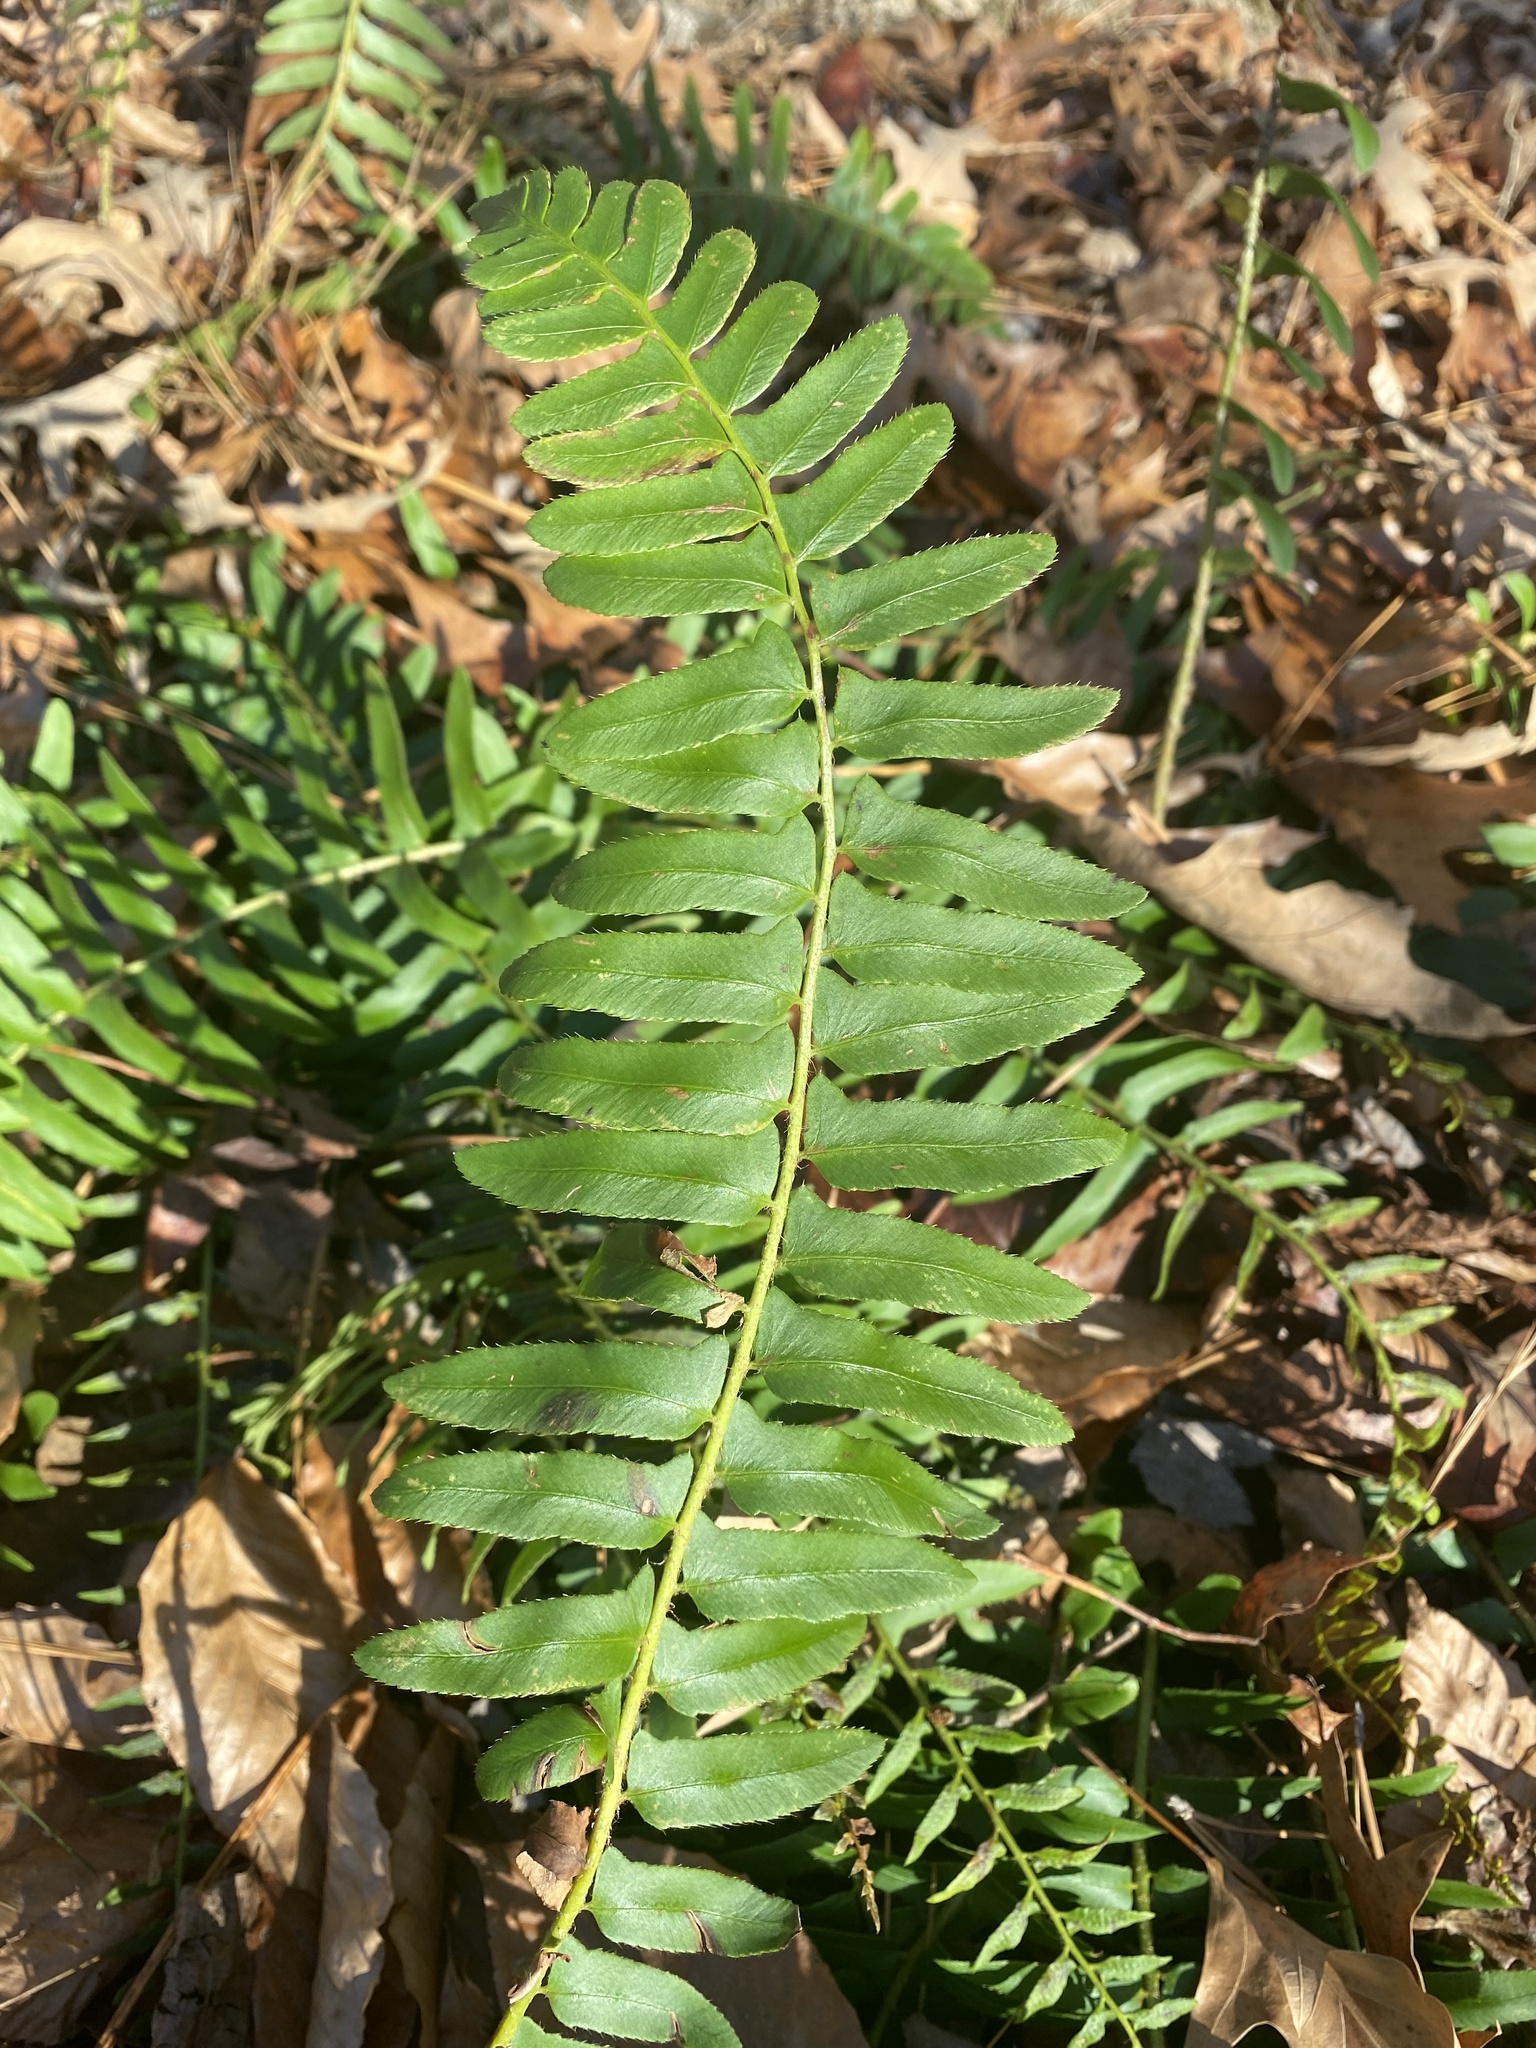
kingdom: Plantae
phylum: Tracheophyta
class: Polypodiopsida
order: Polypodiales
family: Dryopteridaceae
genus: Polystichum
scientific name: Polystichum acrostichoides
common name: Christmas fern
